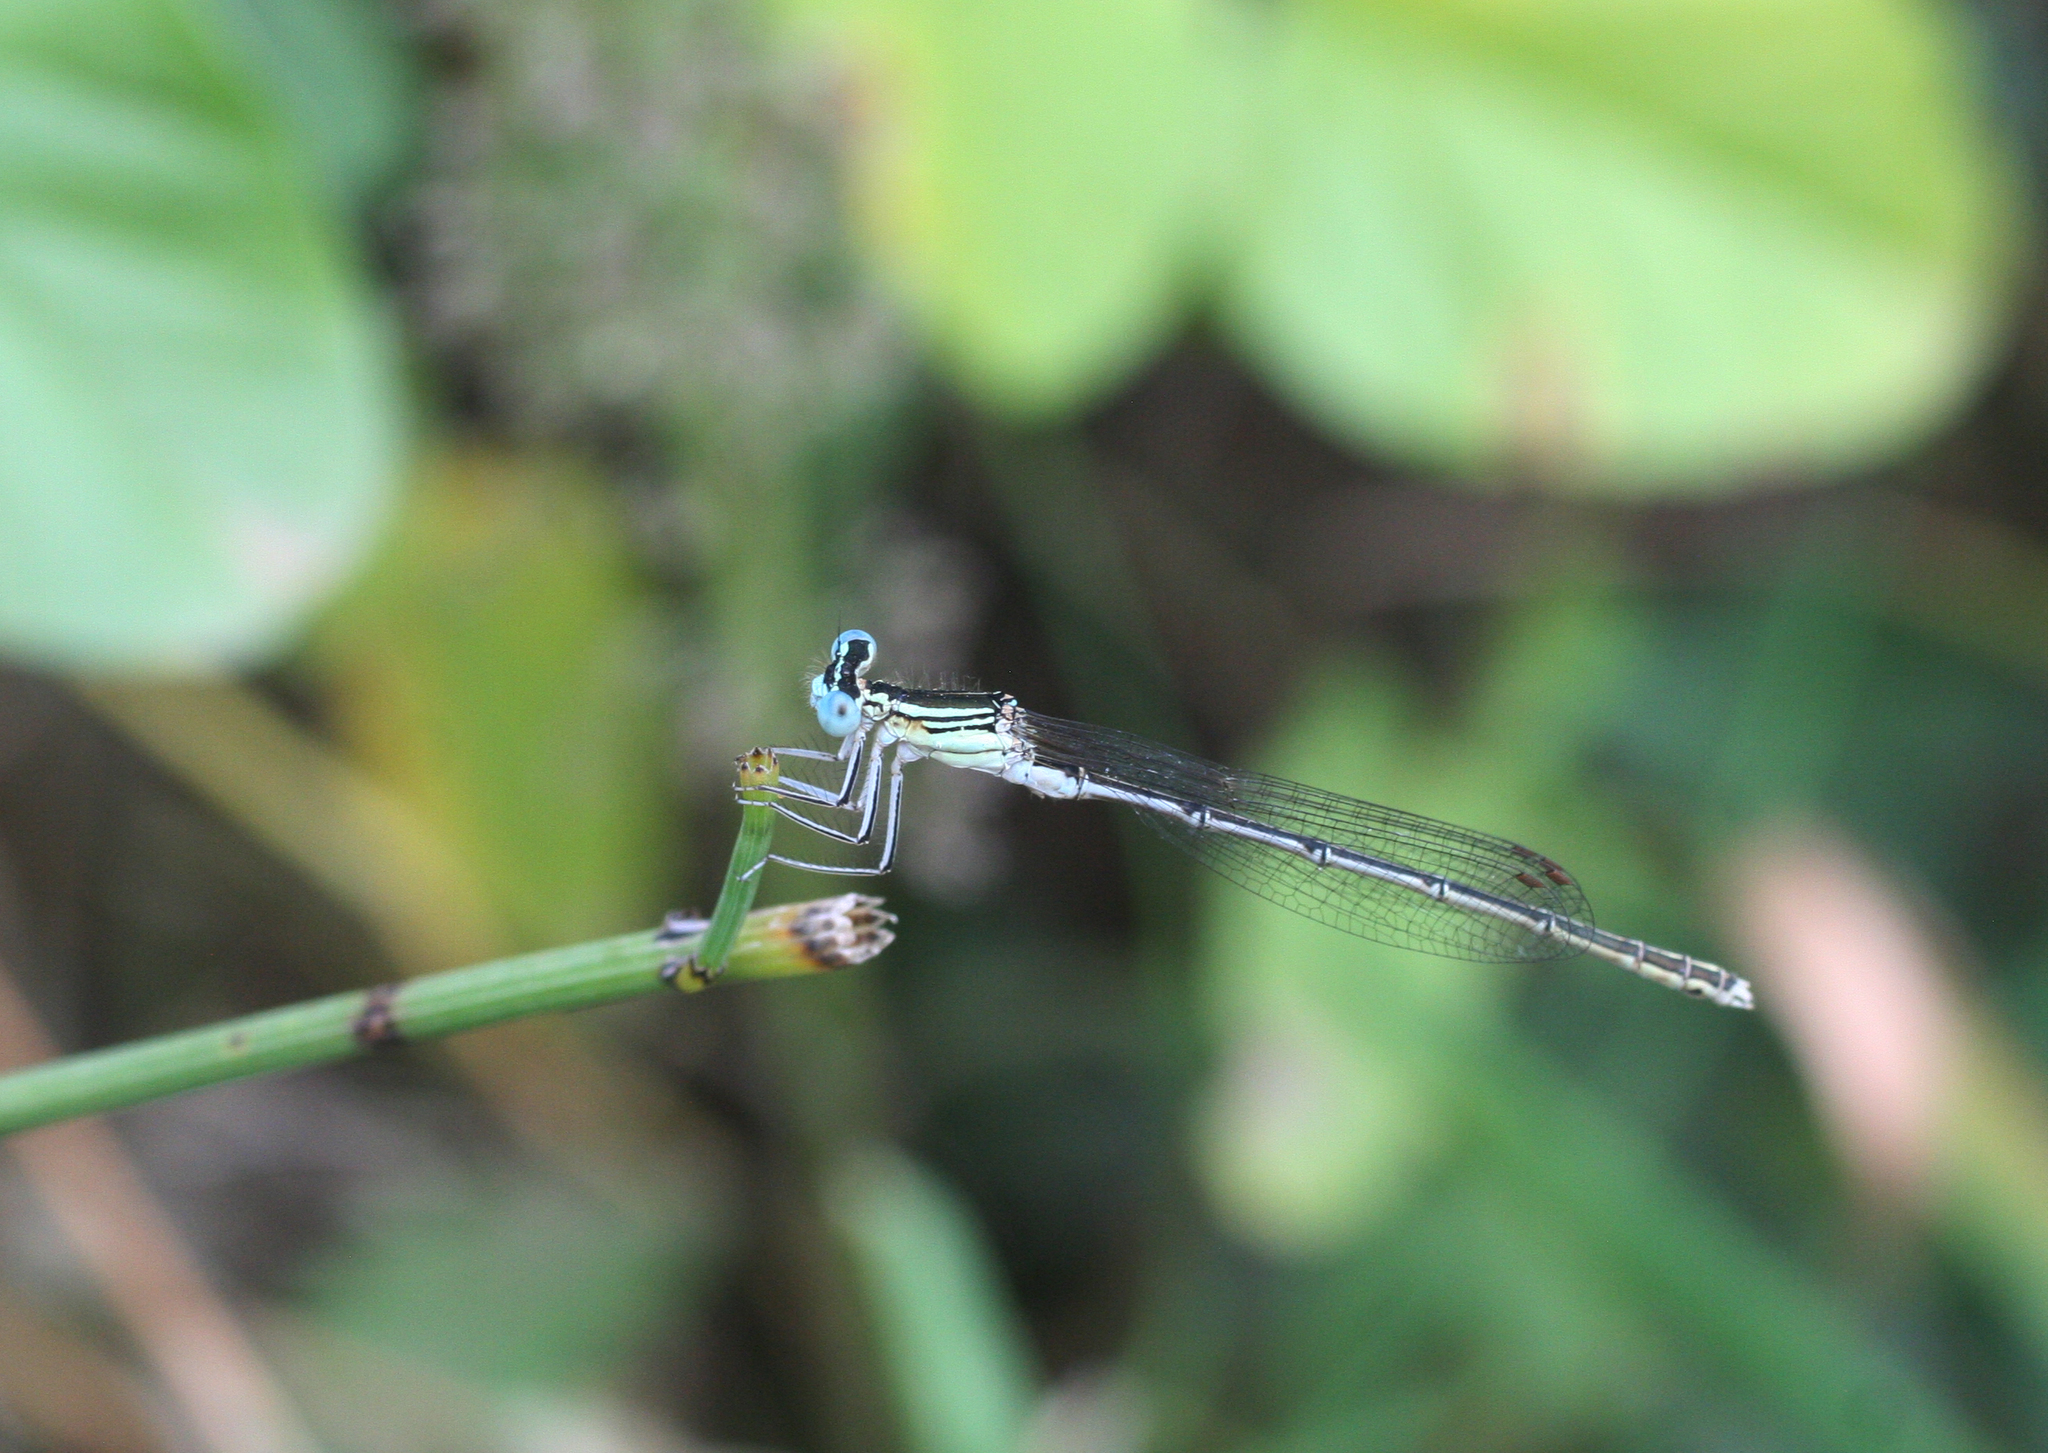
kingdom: Animalia
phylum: Arthropoda
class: Insecta
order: Odonata
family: Platycnemididae
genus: Platycnemis
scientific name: Platycnemis subdilatata
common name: Barbary featherleg
